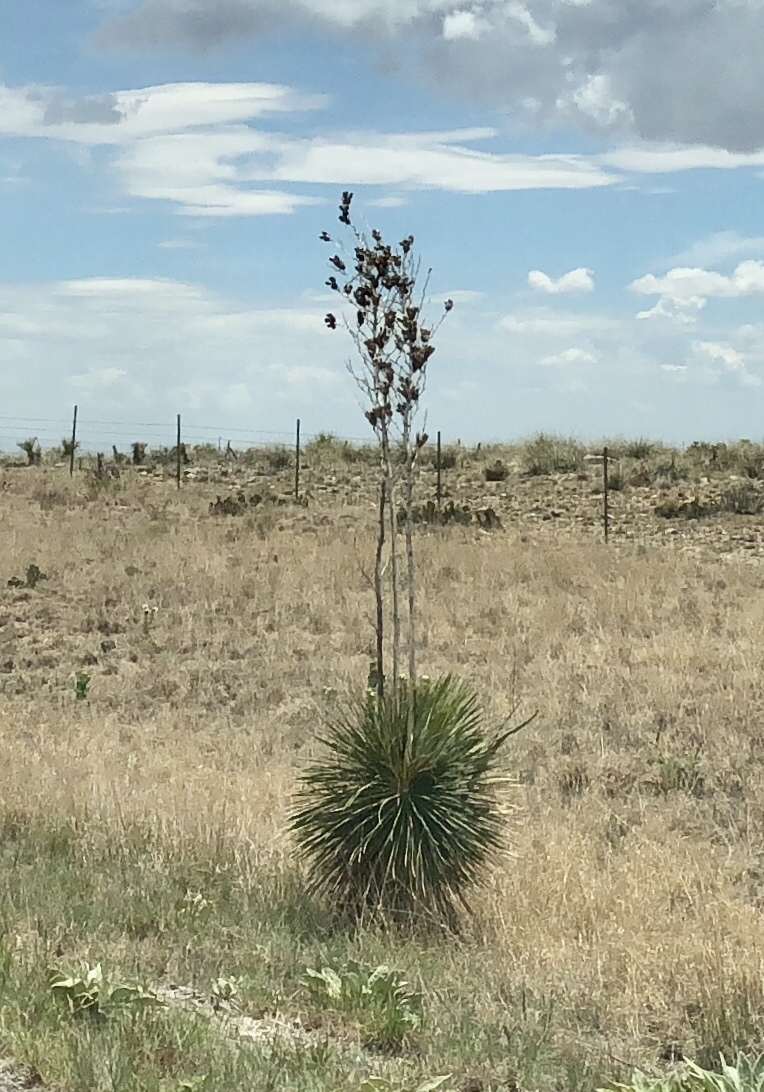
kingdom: Plantae
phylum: Tracheophyta
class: Liliopsida
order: Asparagales
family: Asparagaceae
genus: Yucca
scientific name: Yucca elata
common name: Palmella
